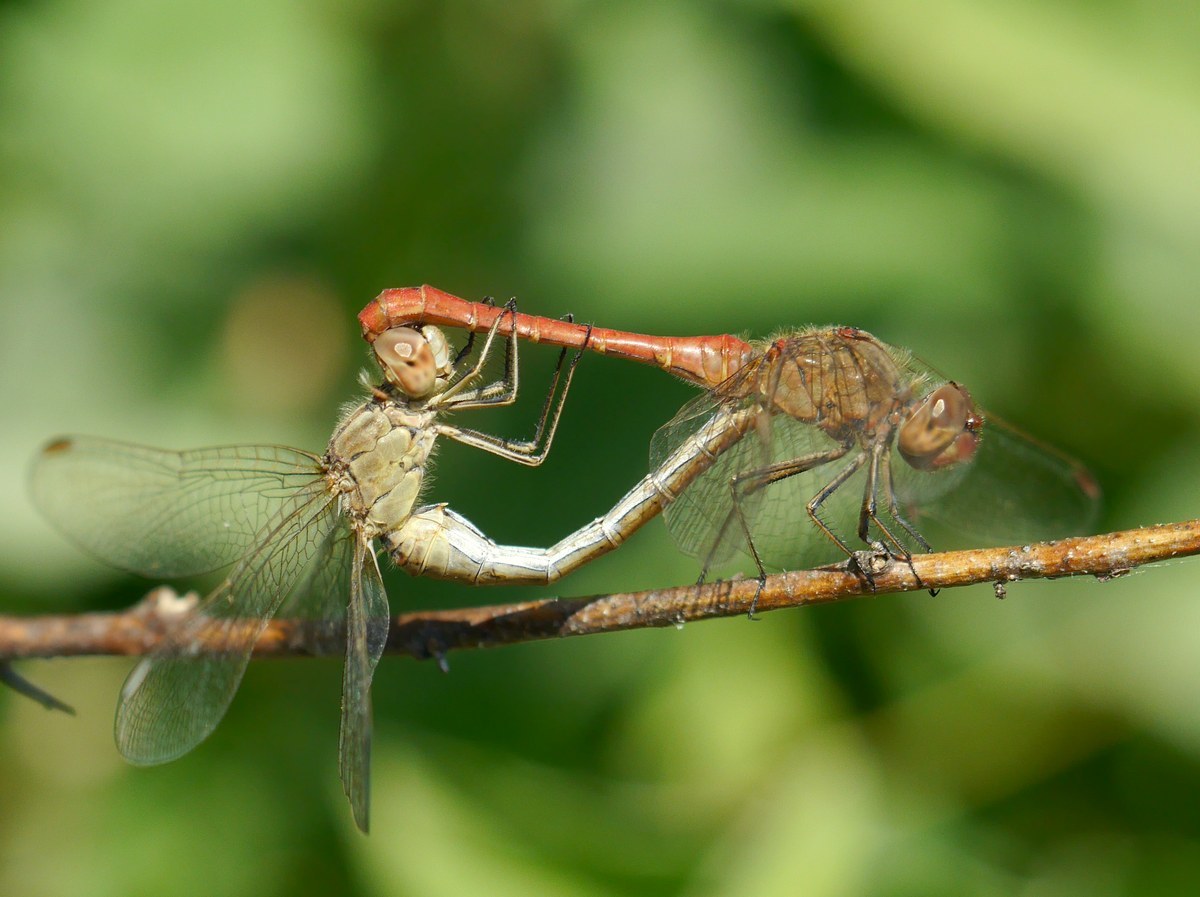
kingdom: Animalia
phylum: Arthropoda
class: Insecta
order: Odonata
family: Libellulidae
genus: Sympetrum
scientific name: Sympetrum meridionale
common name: Southern darter
